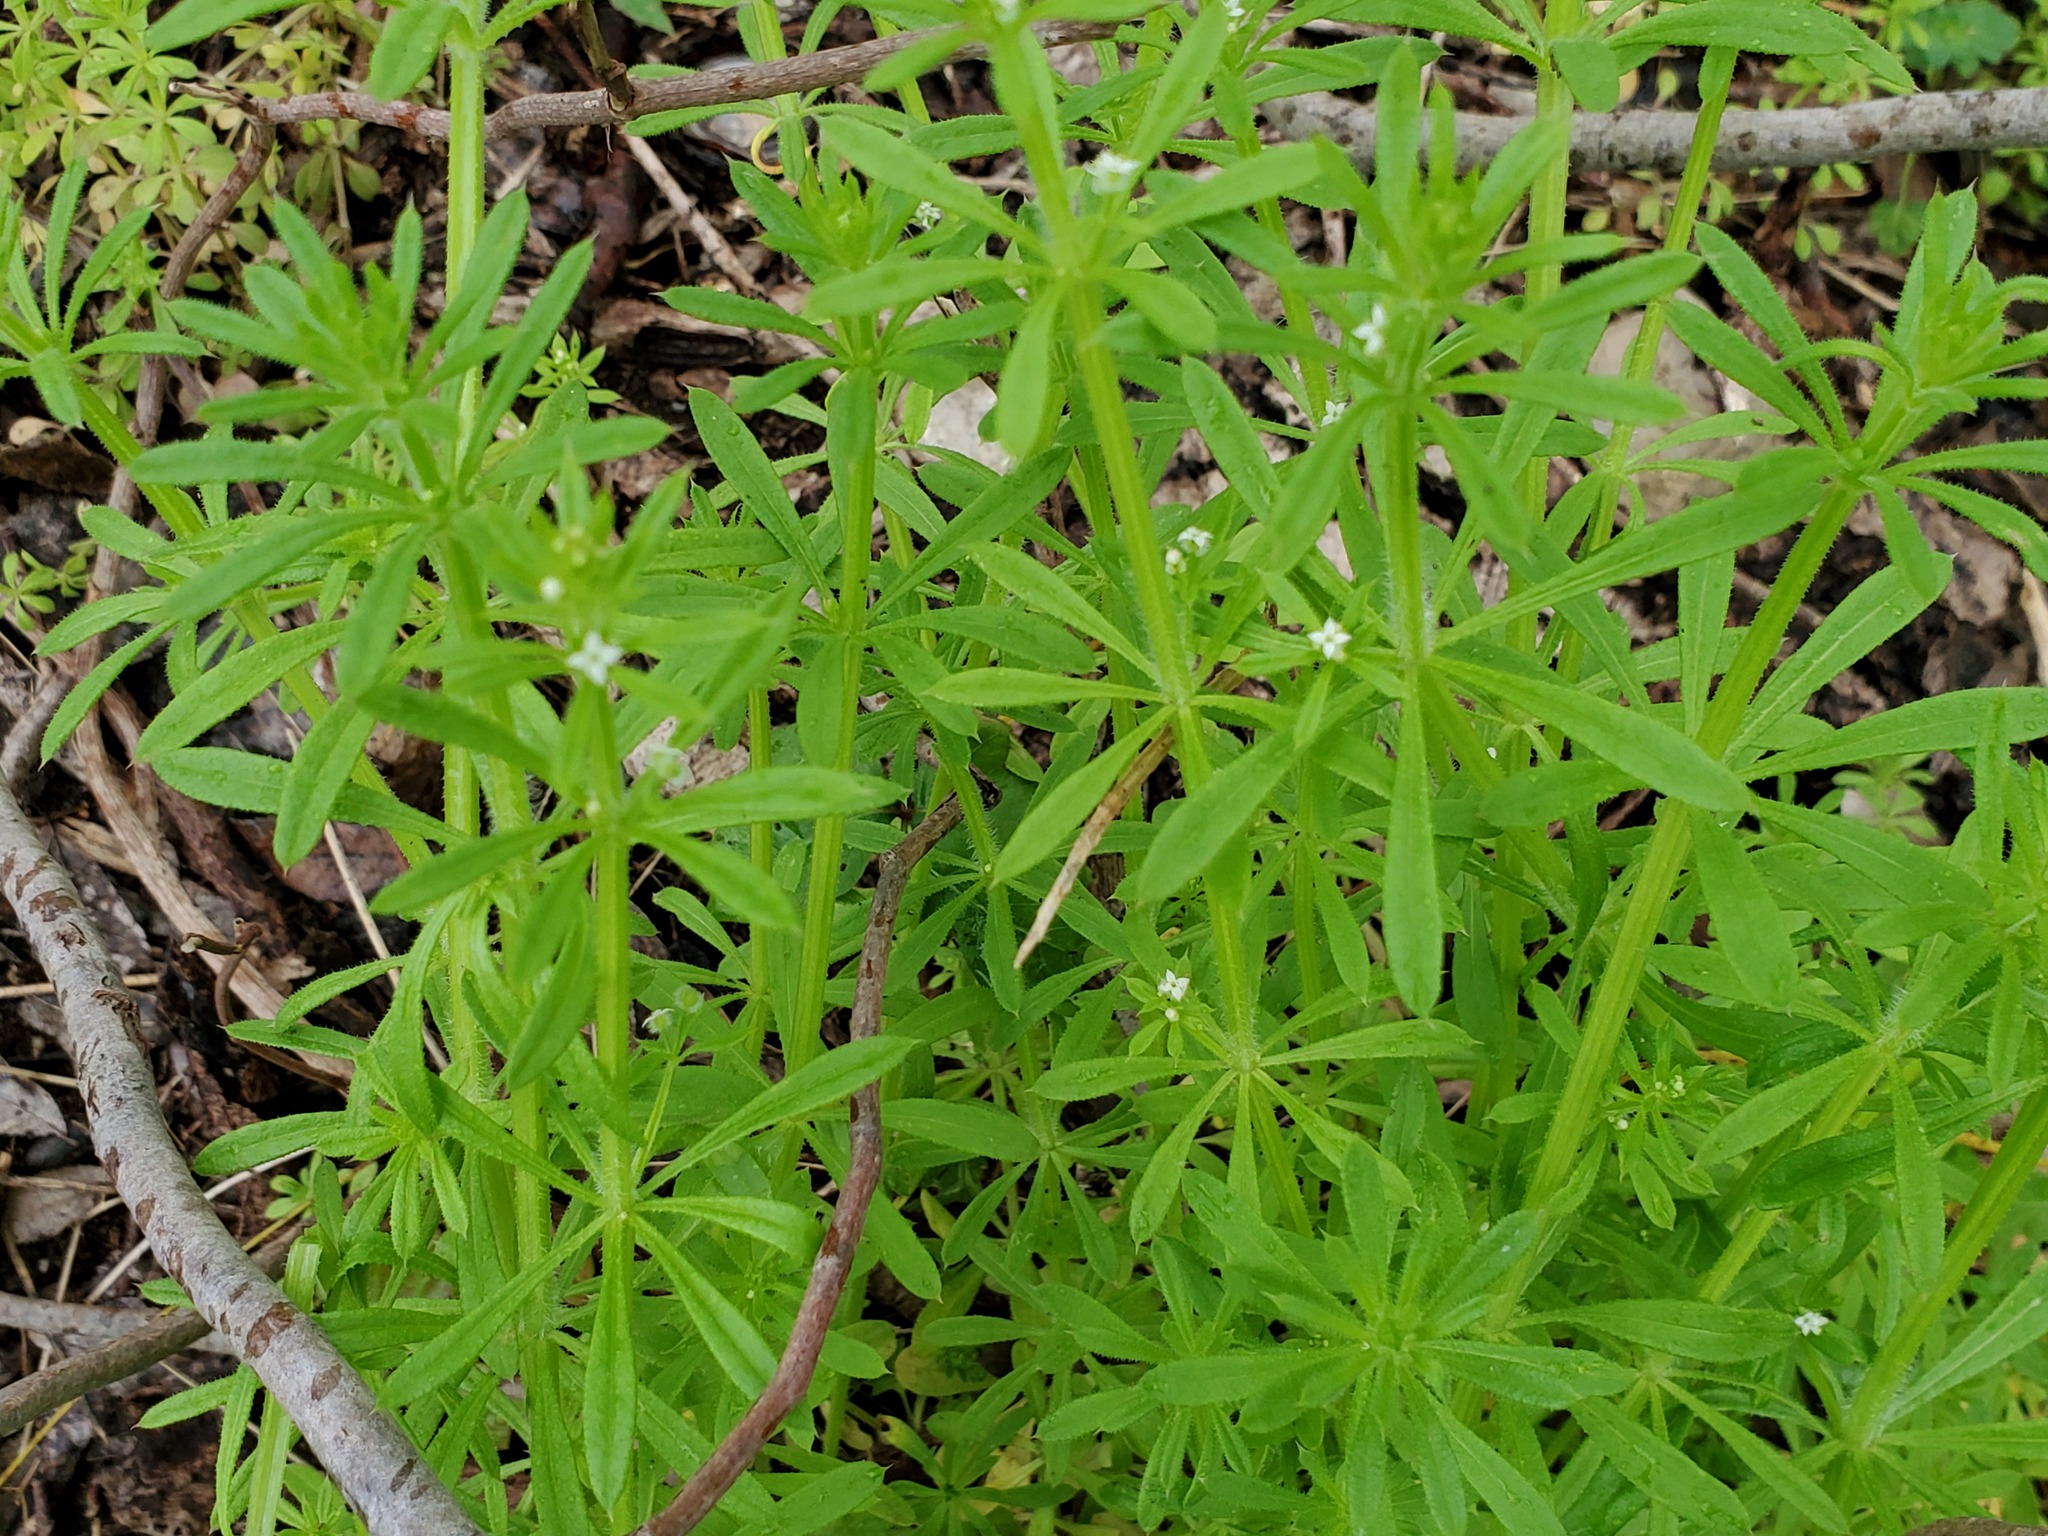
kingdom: Plantae
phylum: Tracheophyta
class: Magnoliopsida
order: Gentianales
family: Rubiaceae
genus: Galium
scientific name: Galium aparine
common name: Cleavers
